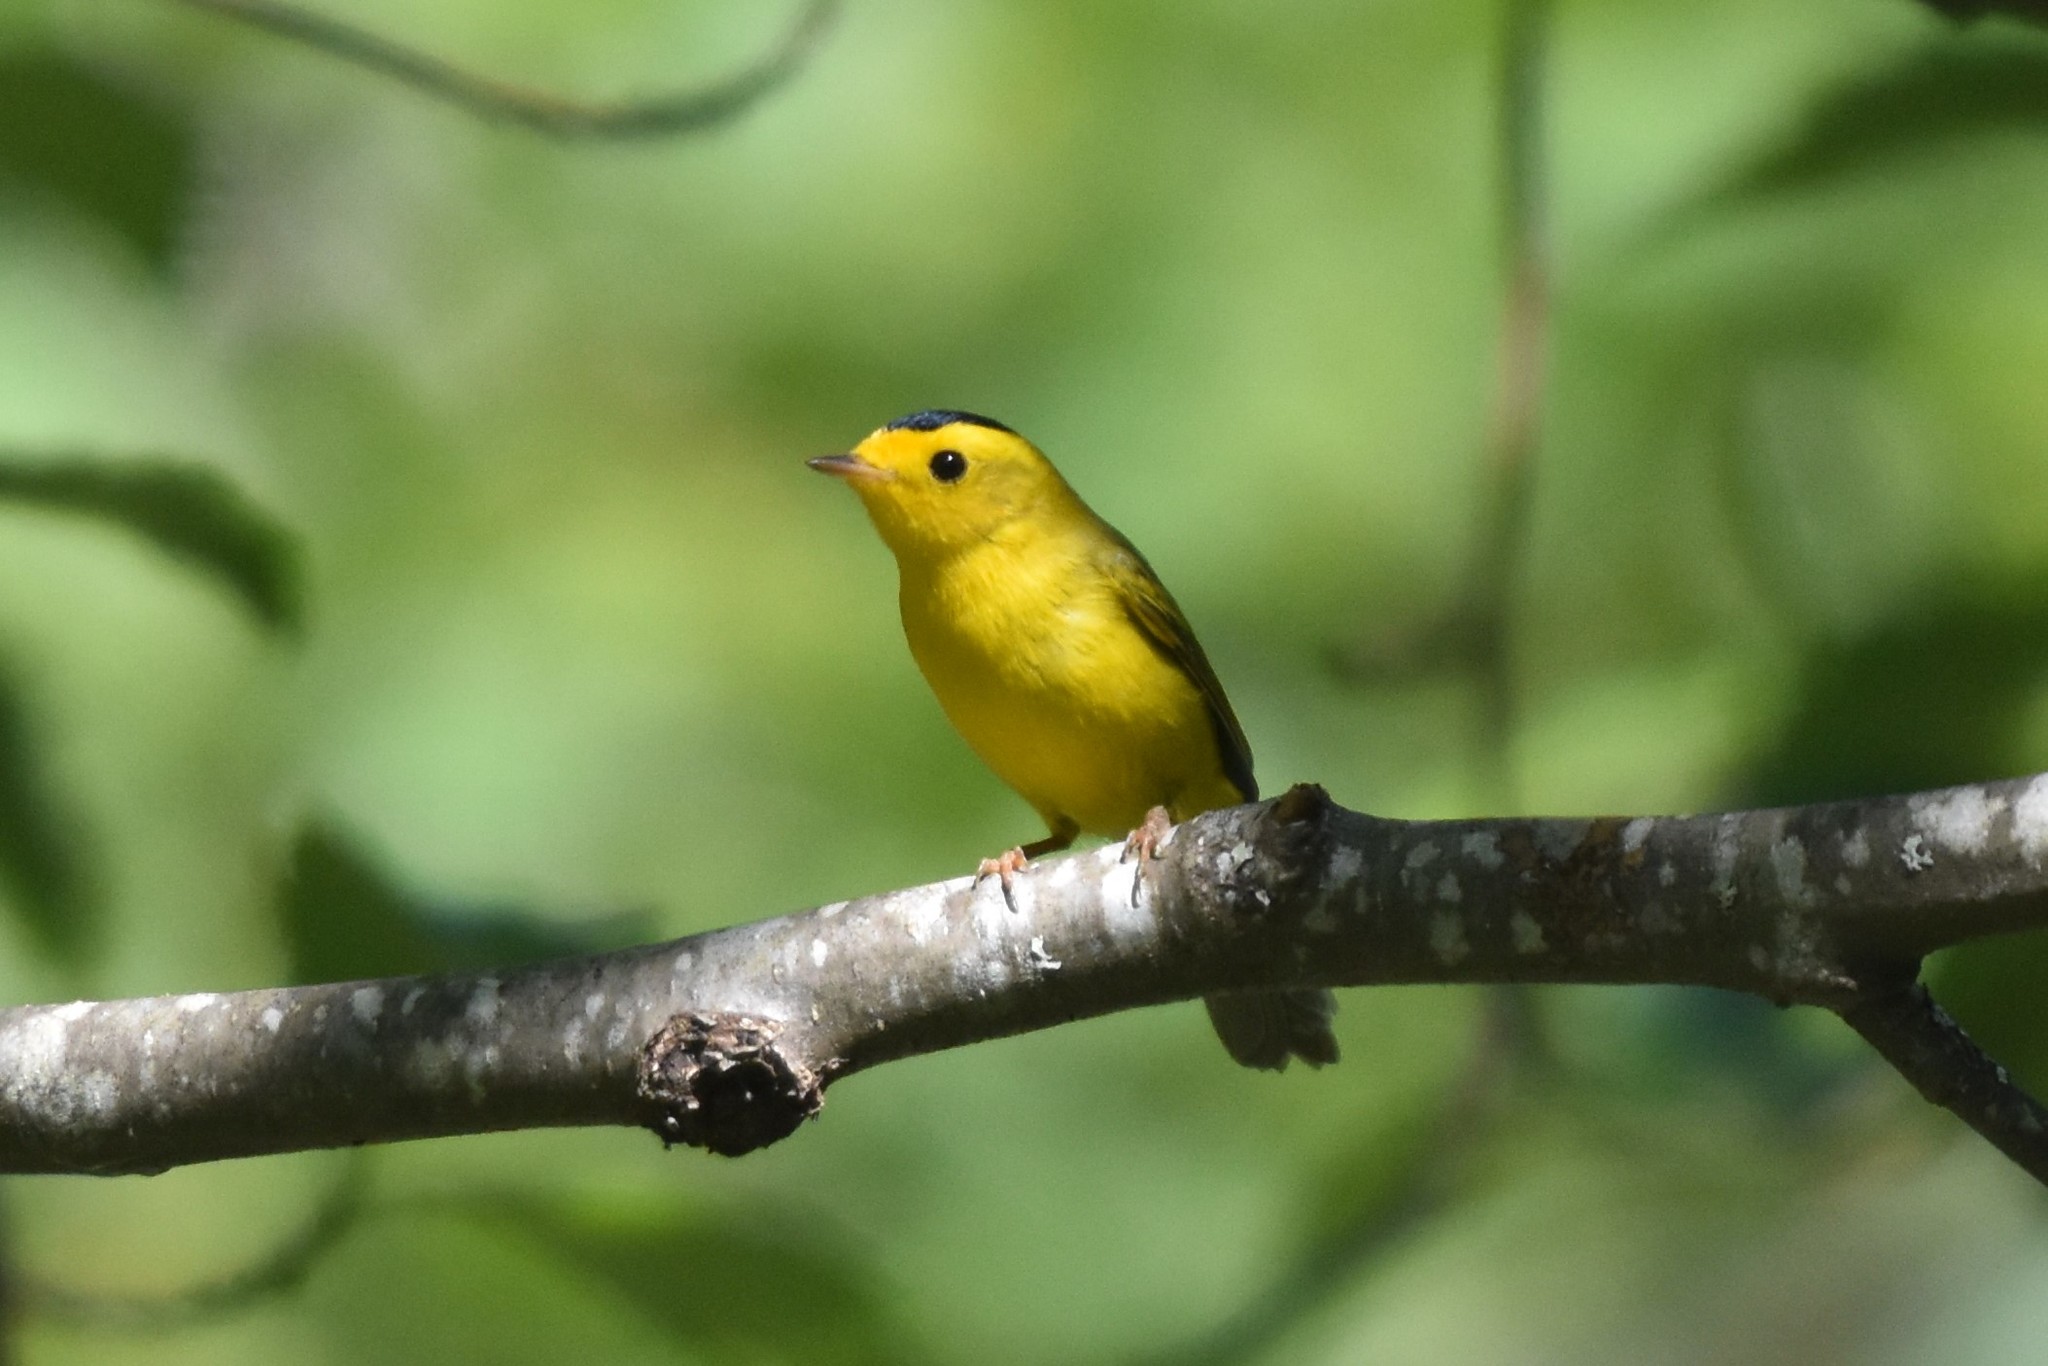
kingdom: Animalia
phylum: Chordata
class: Aves
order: Passeriformes
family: Parulidae
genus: Cardellina
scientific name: Cardellina pusilla
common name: Wilson's warbler
